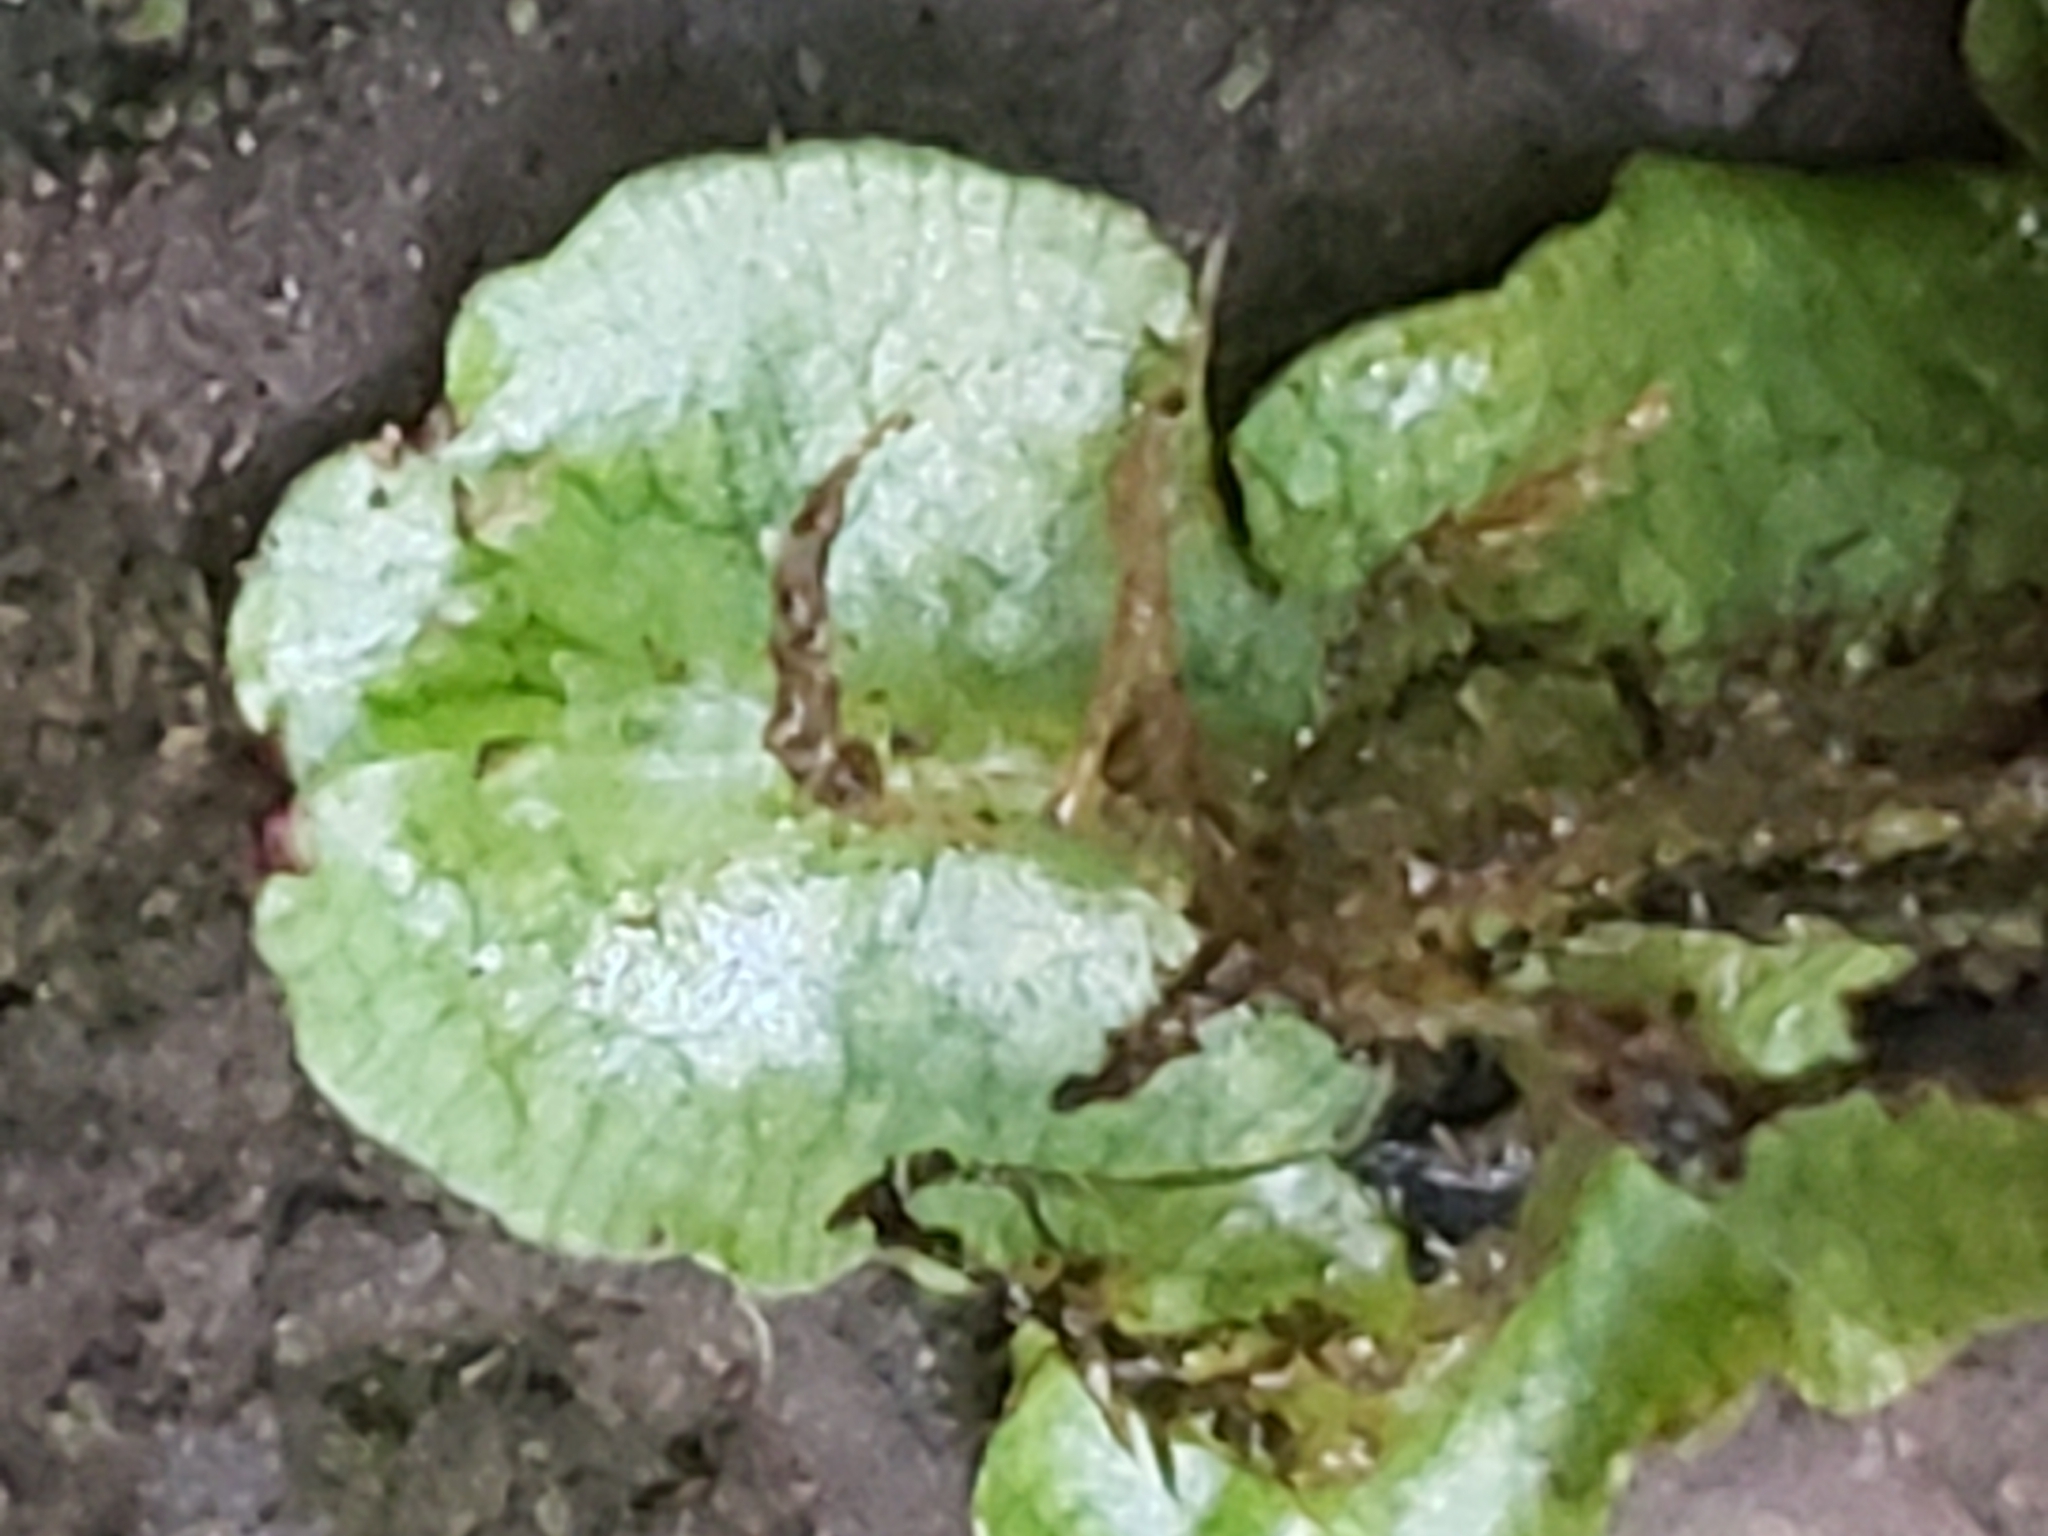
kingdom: Plantae
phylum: Marchantiophyta
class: Marchantiopsida
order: Marchantiales
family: Conocephalaceae
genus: Conocephalum
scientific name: Conocephalum salebrosum
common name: Cat-tongue liverwort
